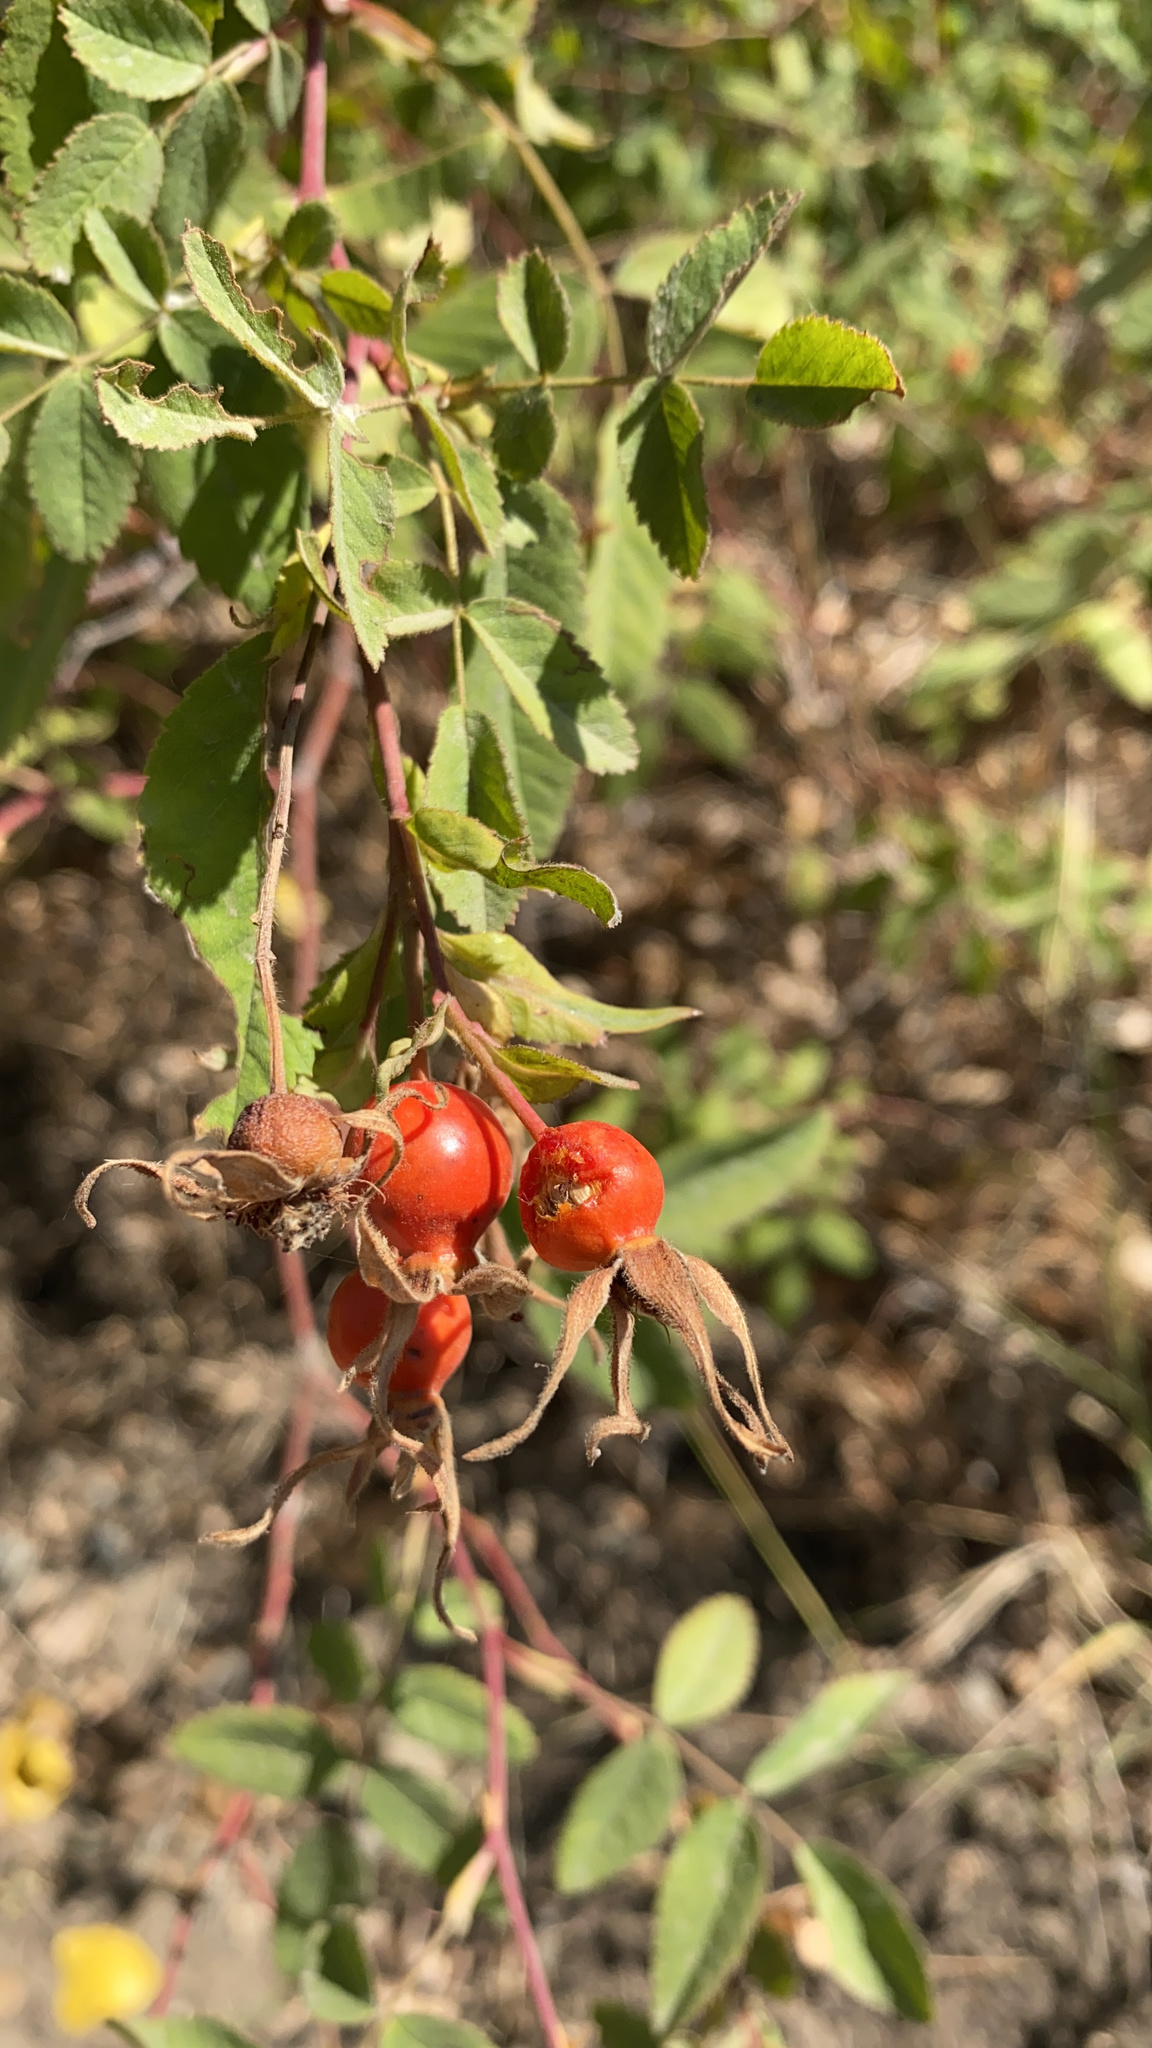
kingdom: Plantae
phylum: Tracheophyta
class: Magnoliopsida
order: Rosales
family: Rosaceae
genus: Rosa
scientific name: Rosa californica
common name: California rose
